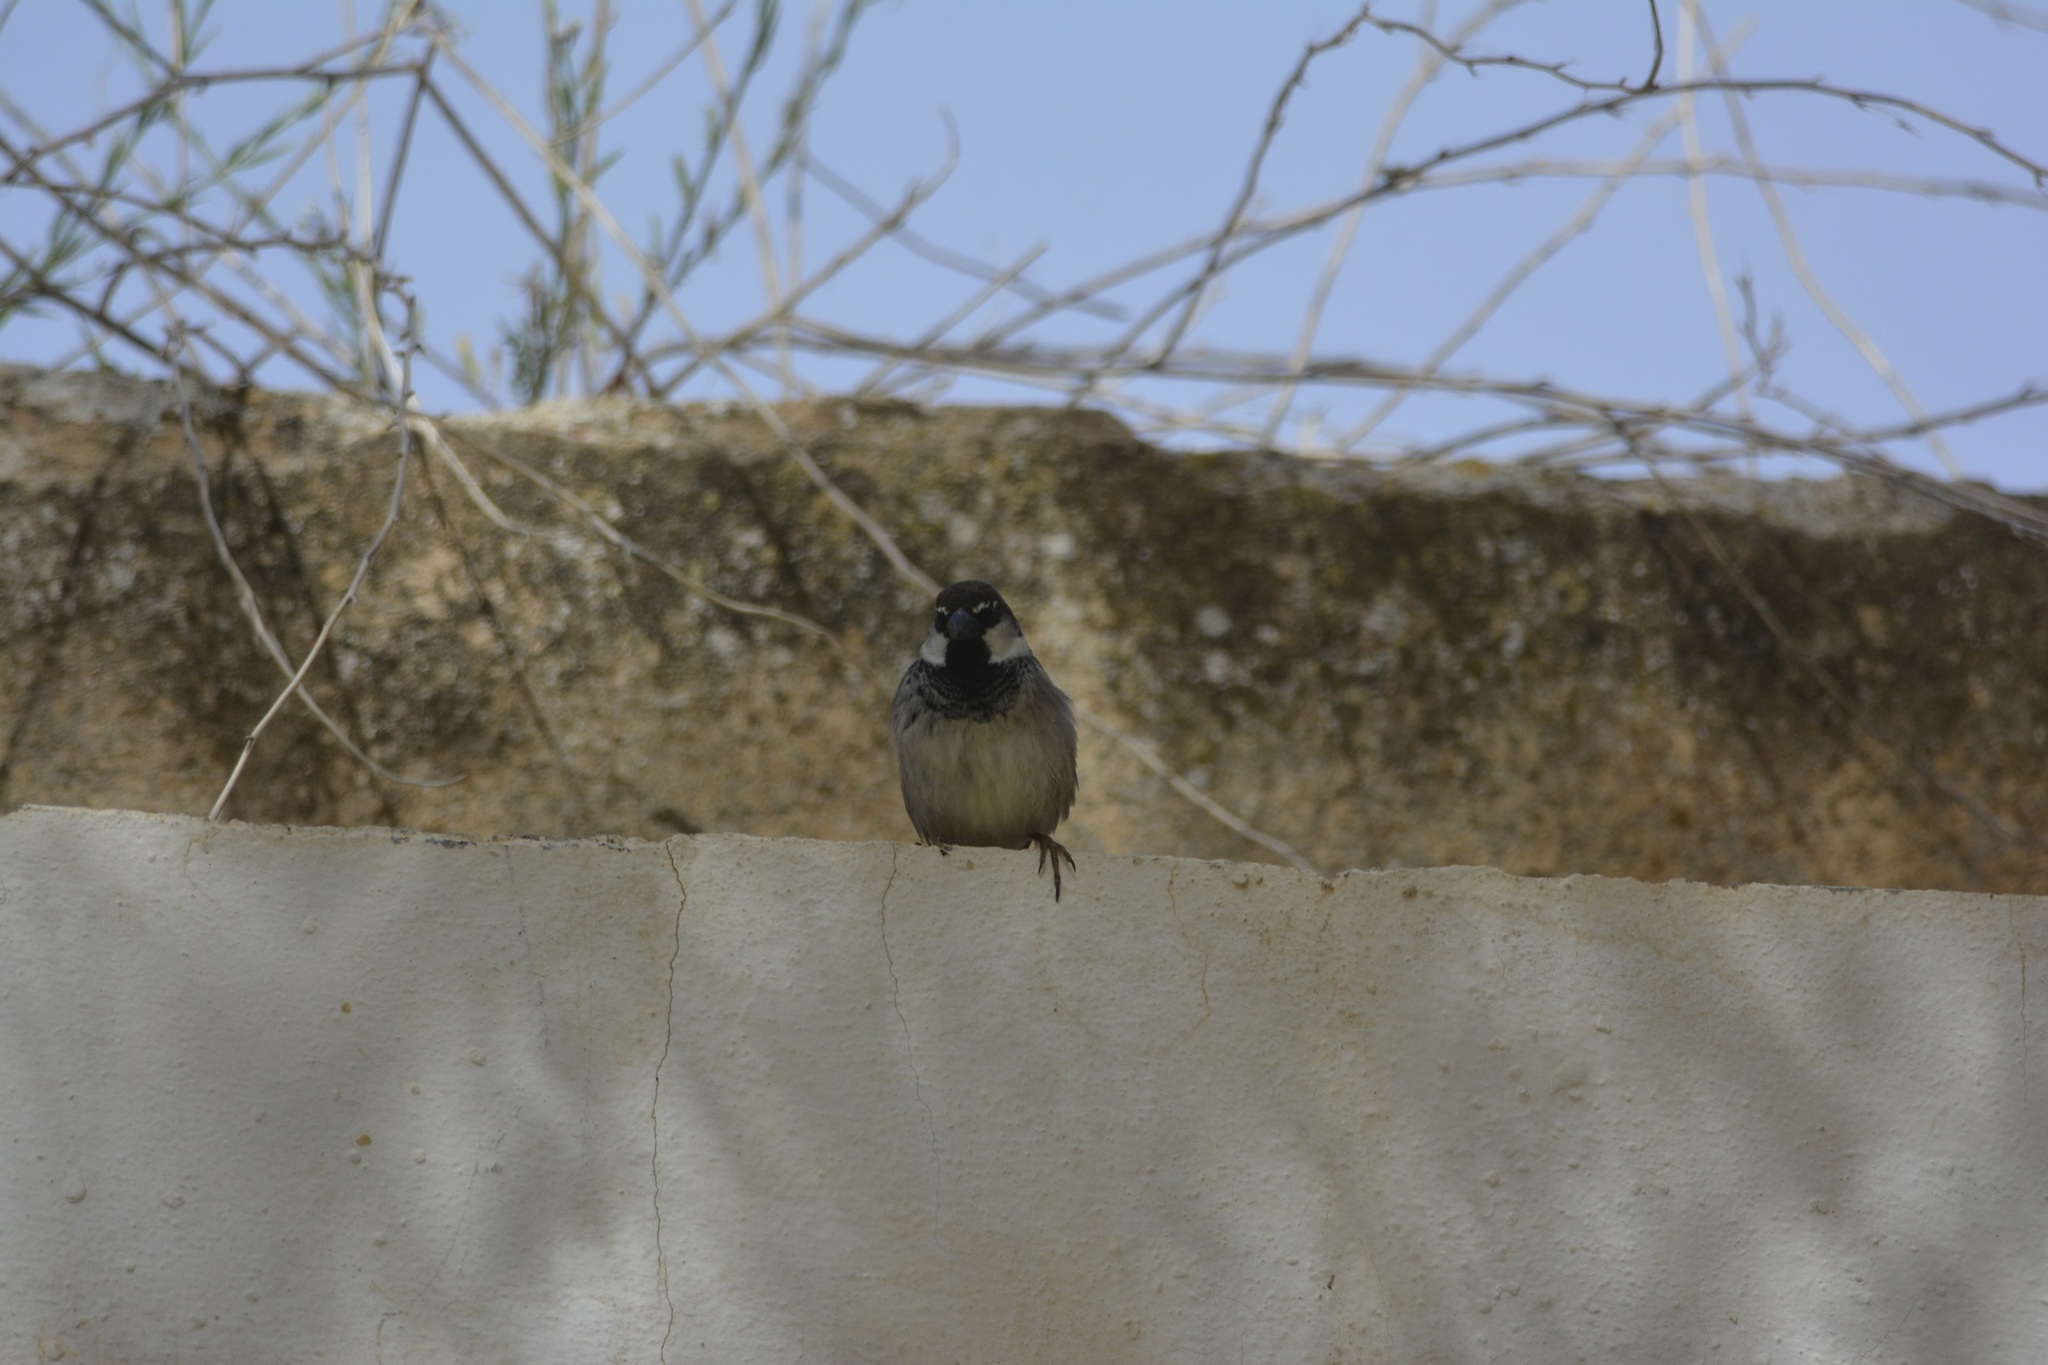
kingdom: Animalia
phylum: Chordata
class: Aves
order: Passeriformes
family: Passeridae
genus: Passer
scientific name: Passer hispaniolensis
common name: Spanish sparrow
